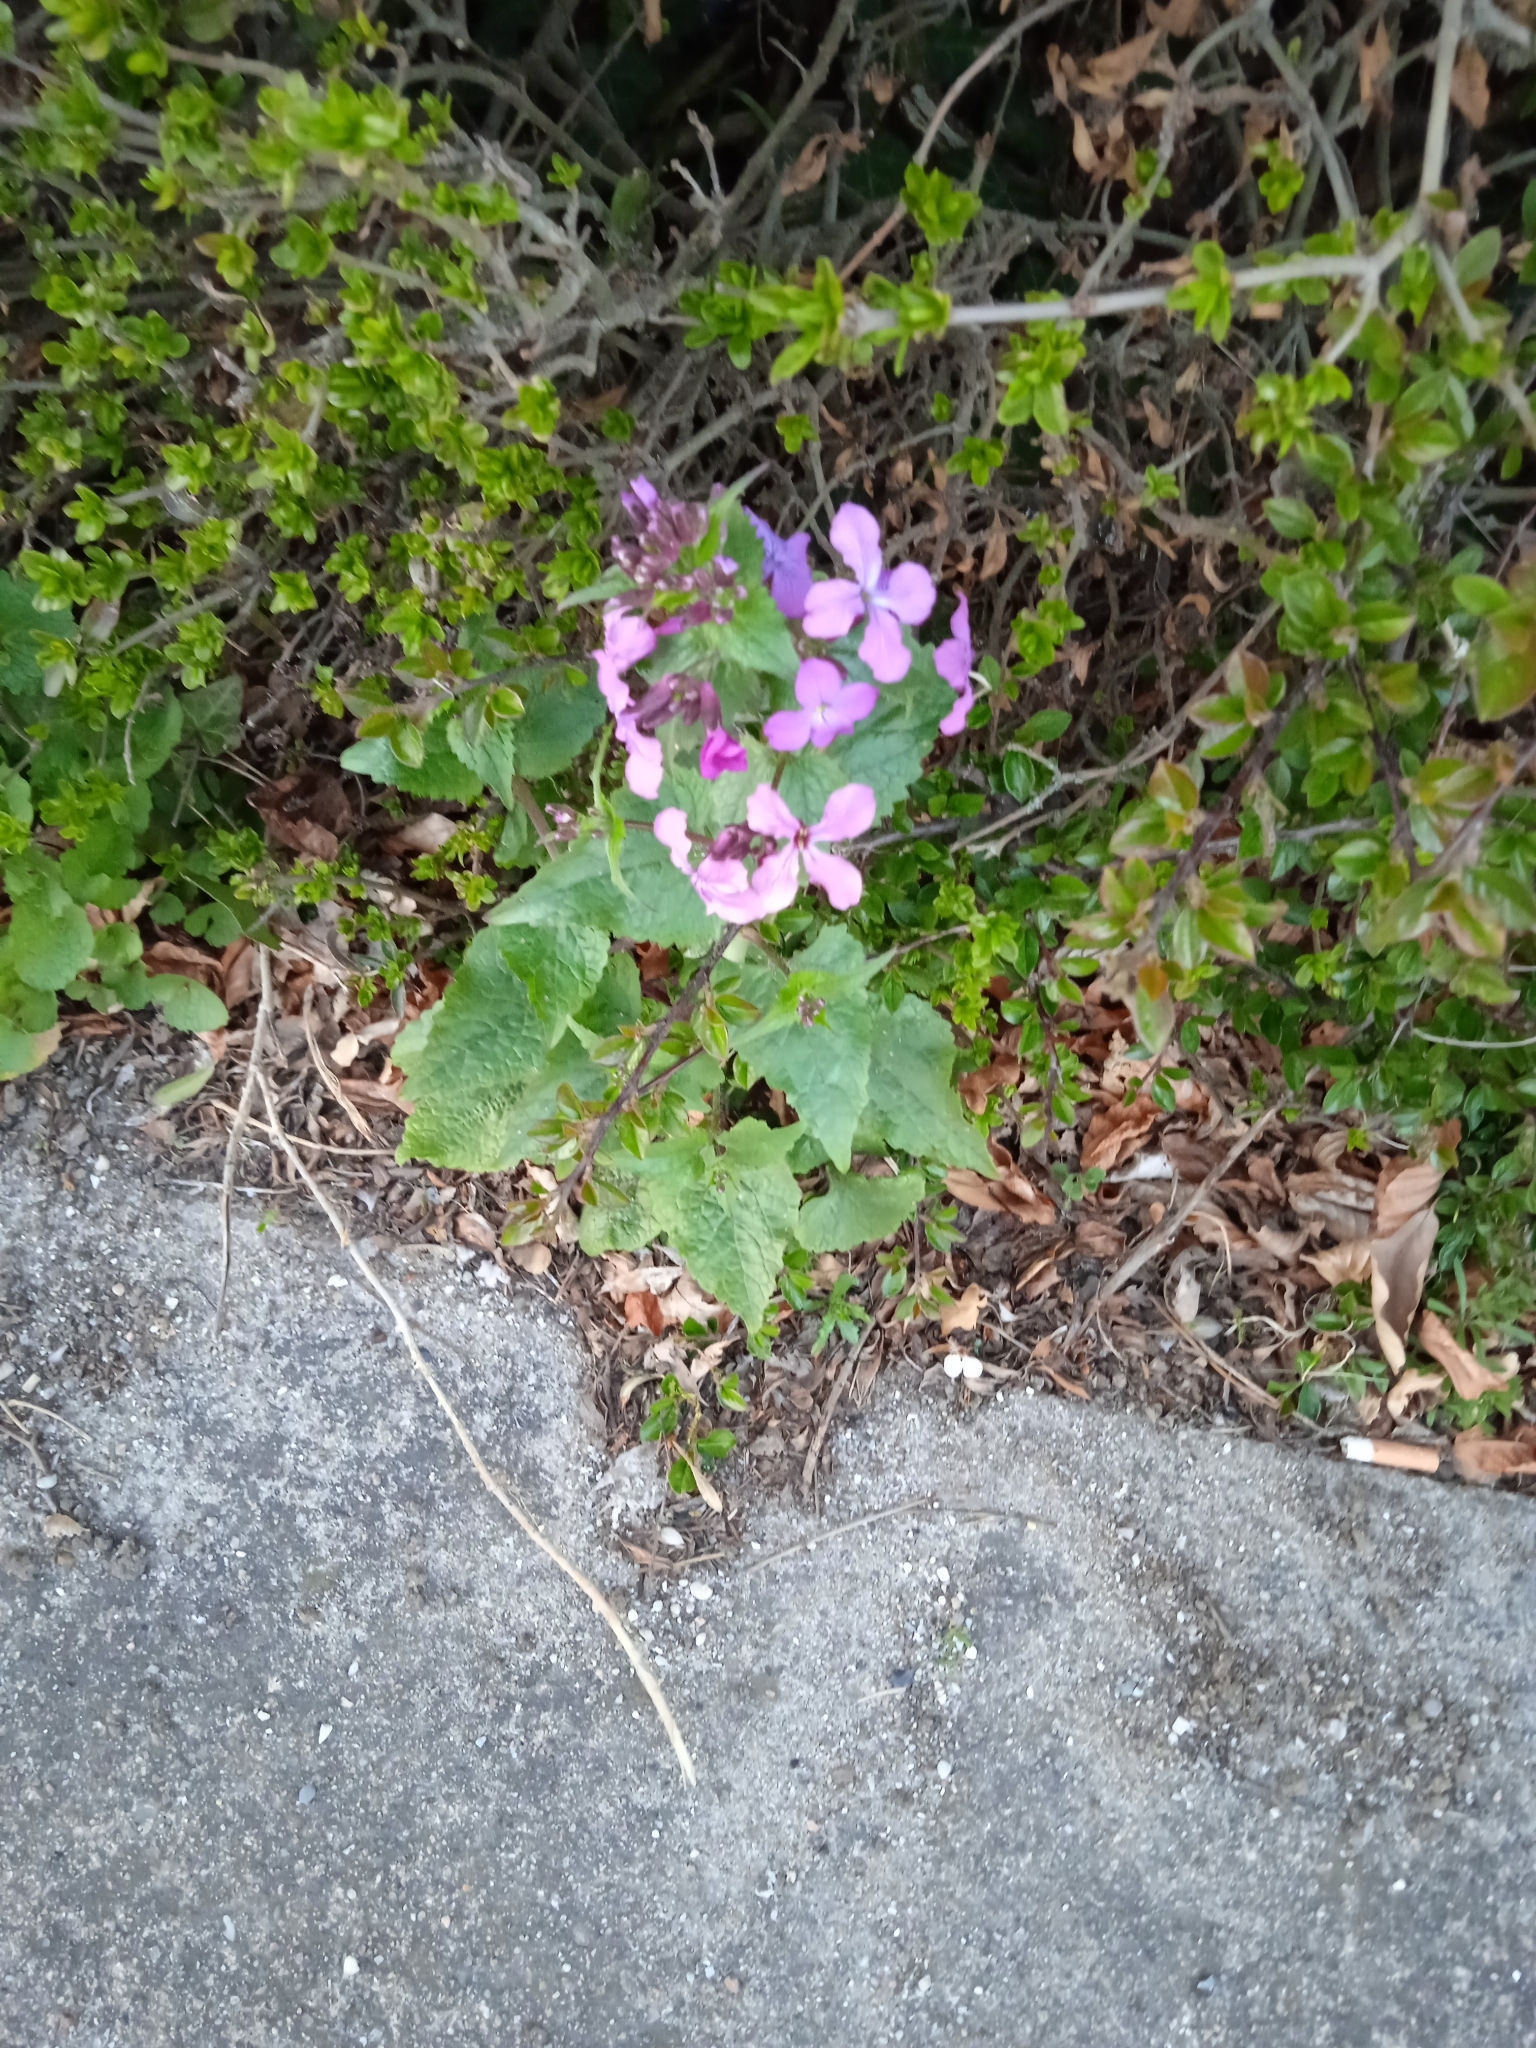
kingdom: Plantae
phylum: Tracheophyta
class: Magnoliopsida
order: Brassicales
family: Brassicaceae
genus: Lunaria
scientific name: Lunaria annua
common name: Honesty
